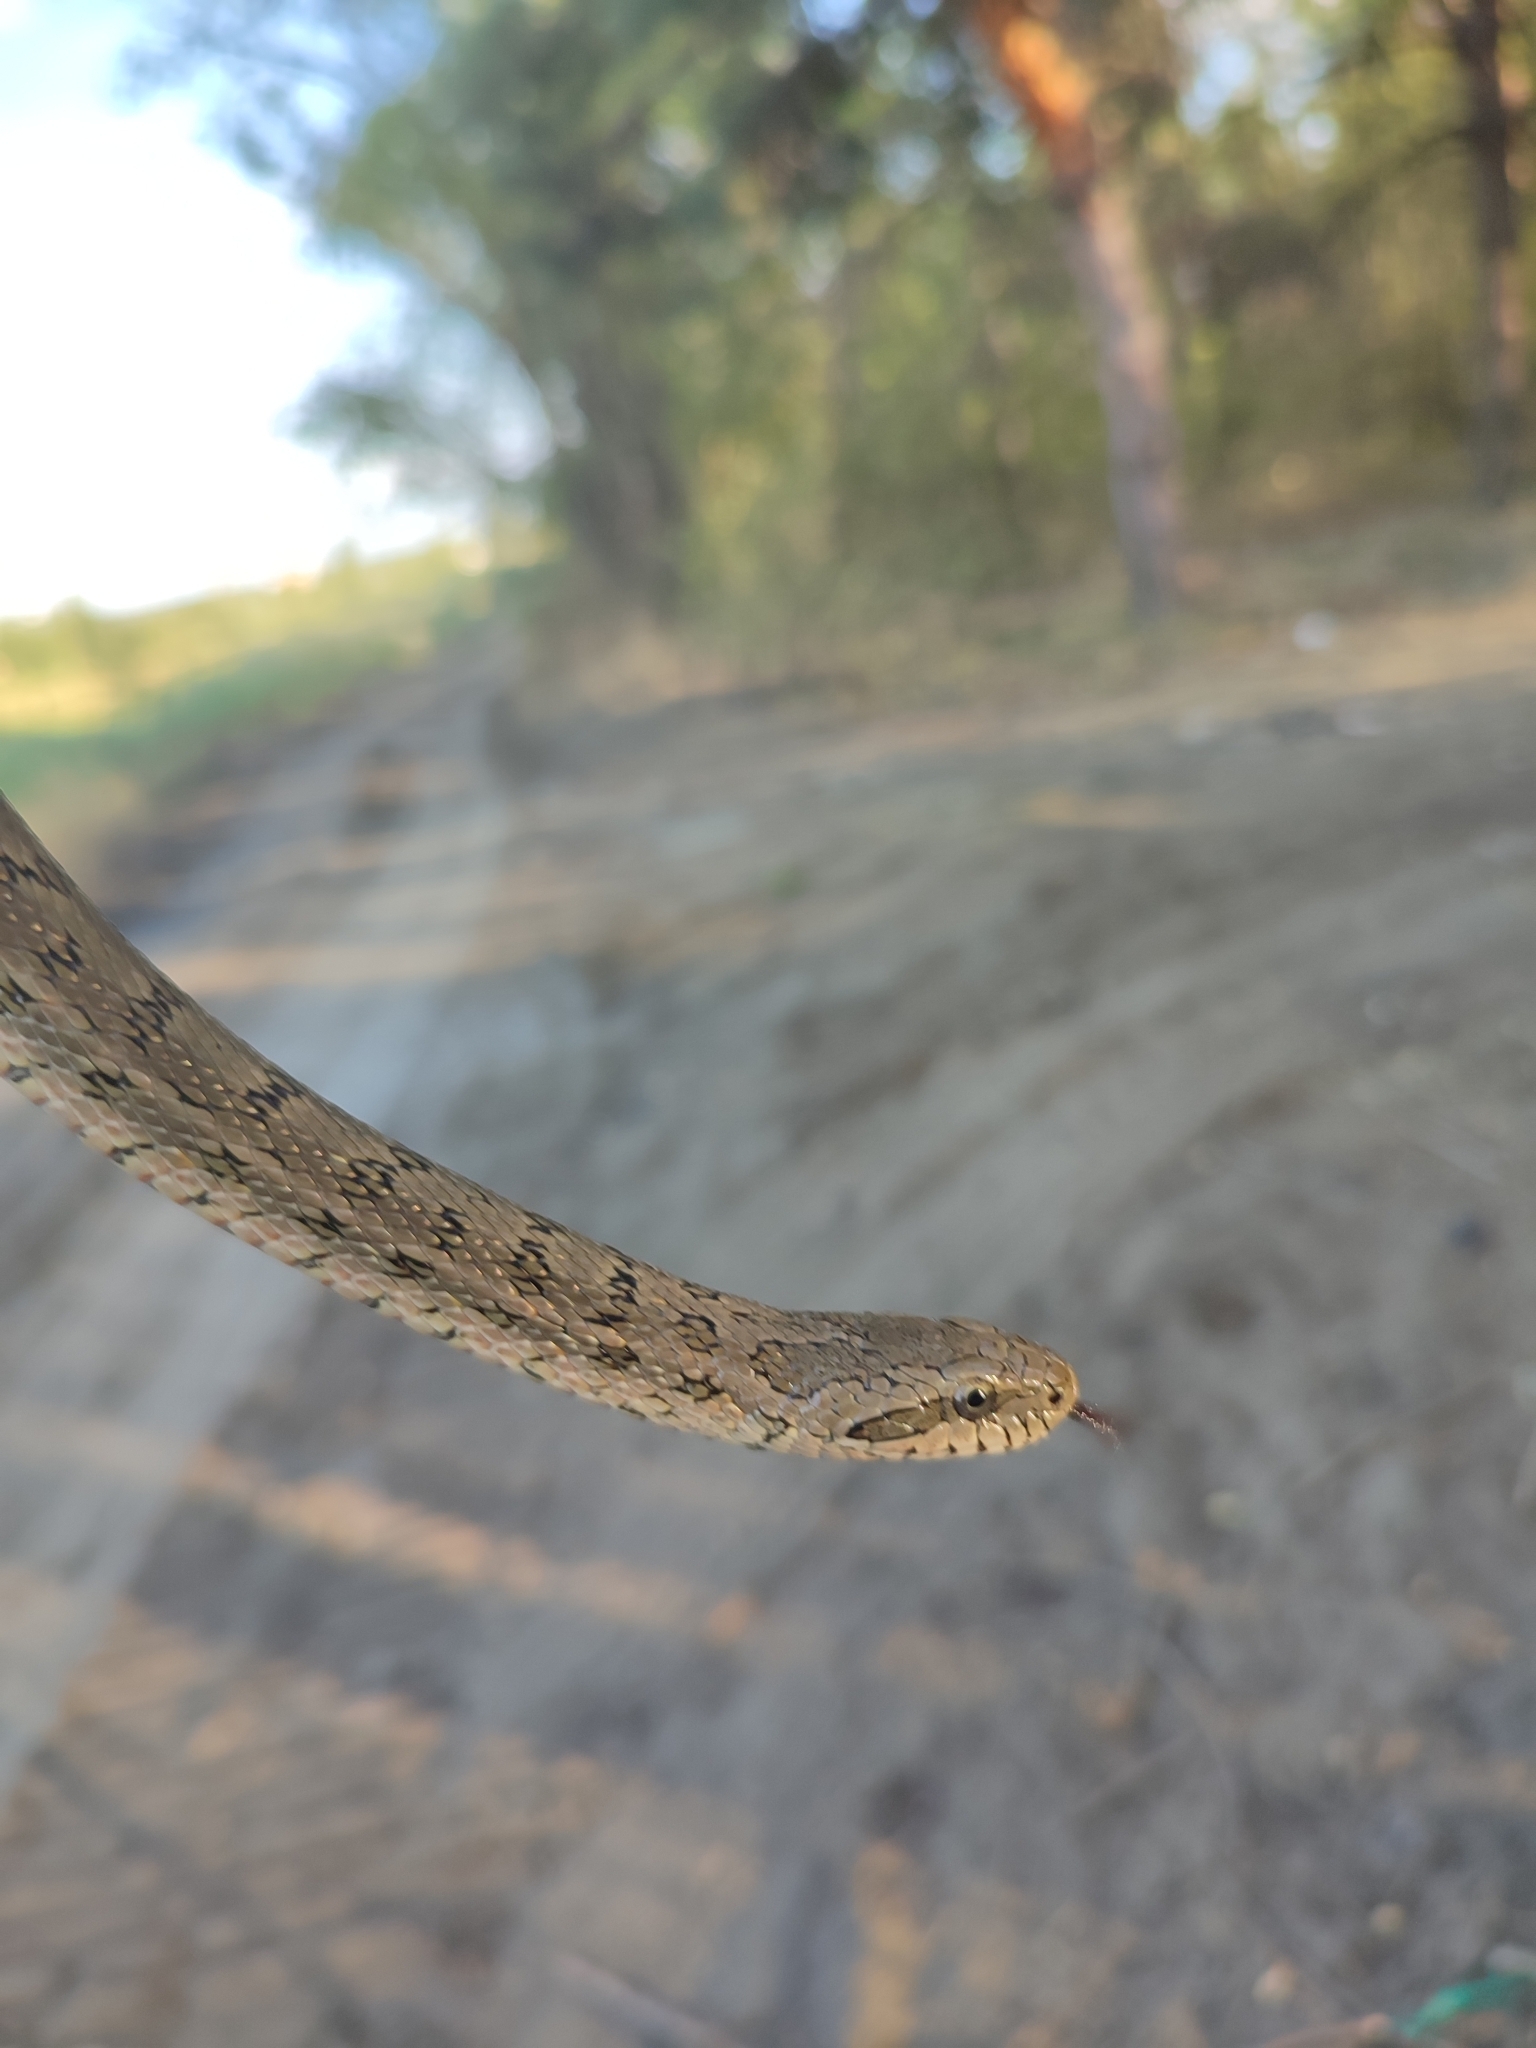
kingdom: Animalia
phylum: Chordata
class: Squamata
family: Colubridae
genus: Elaphe
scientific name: Elaphe dione
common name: Dione ratsnake
